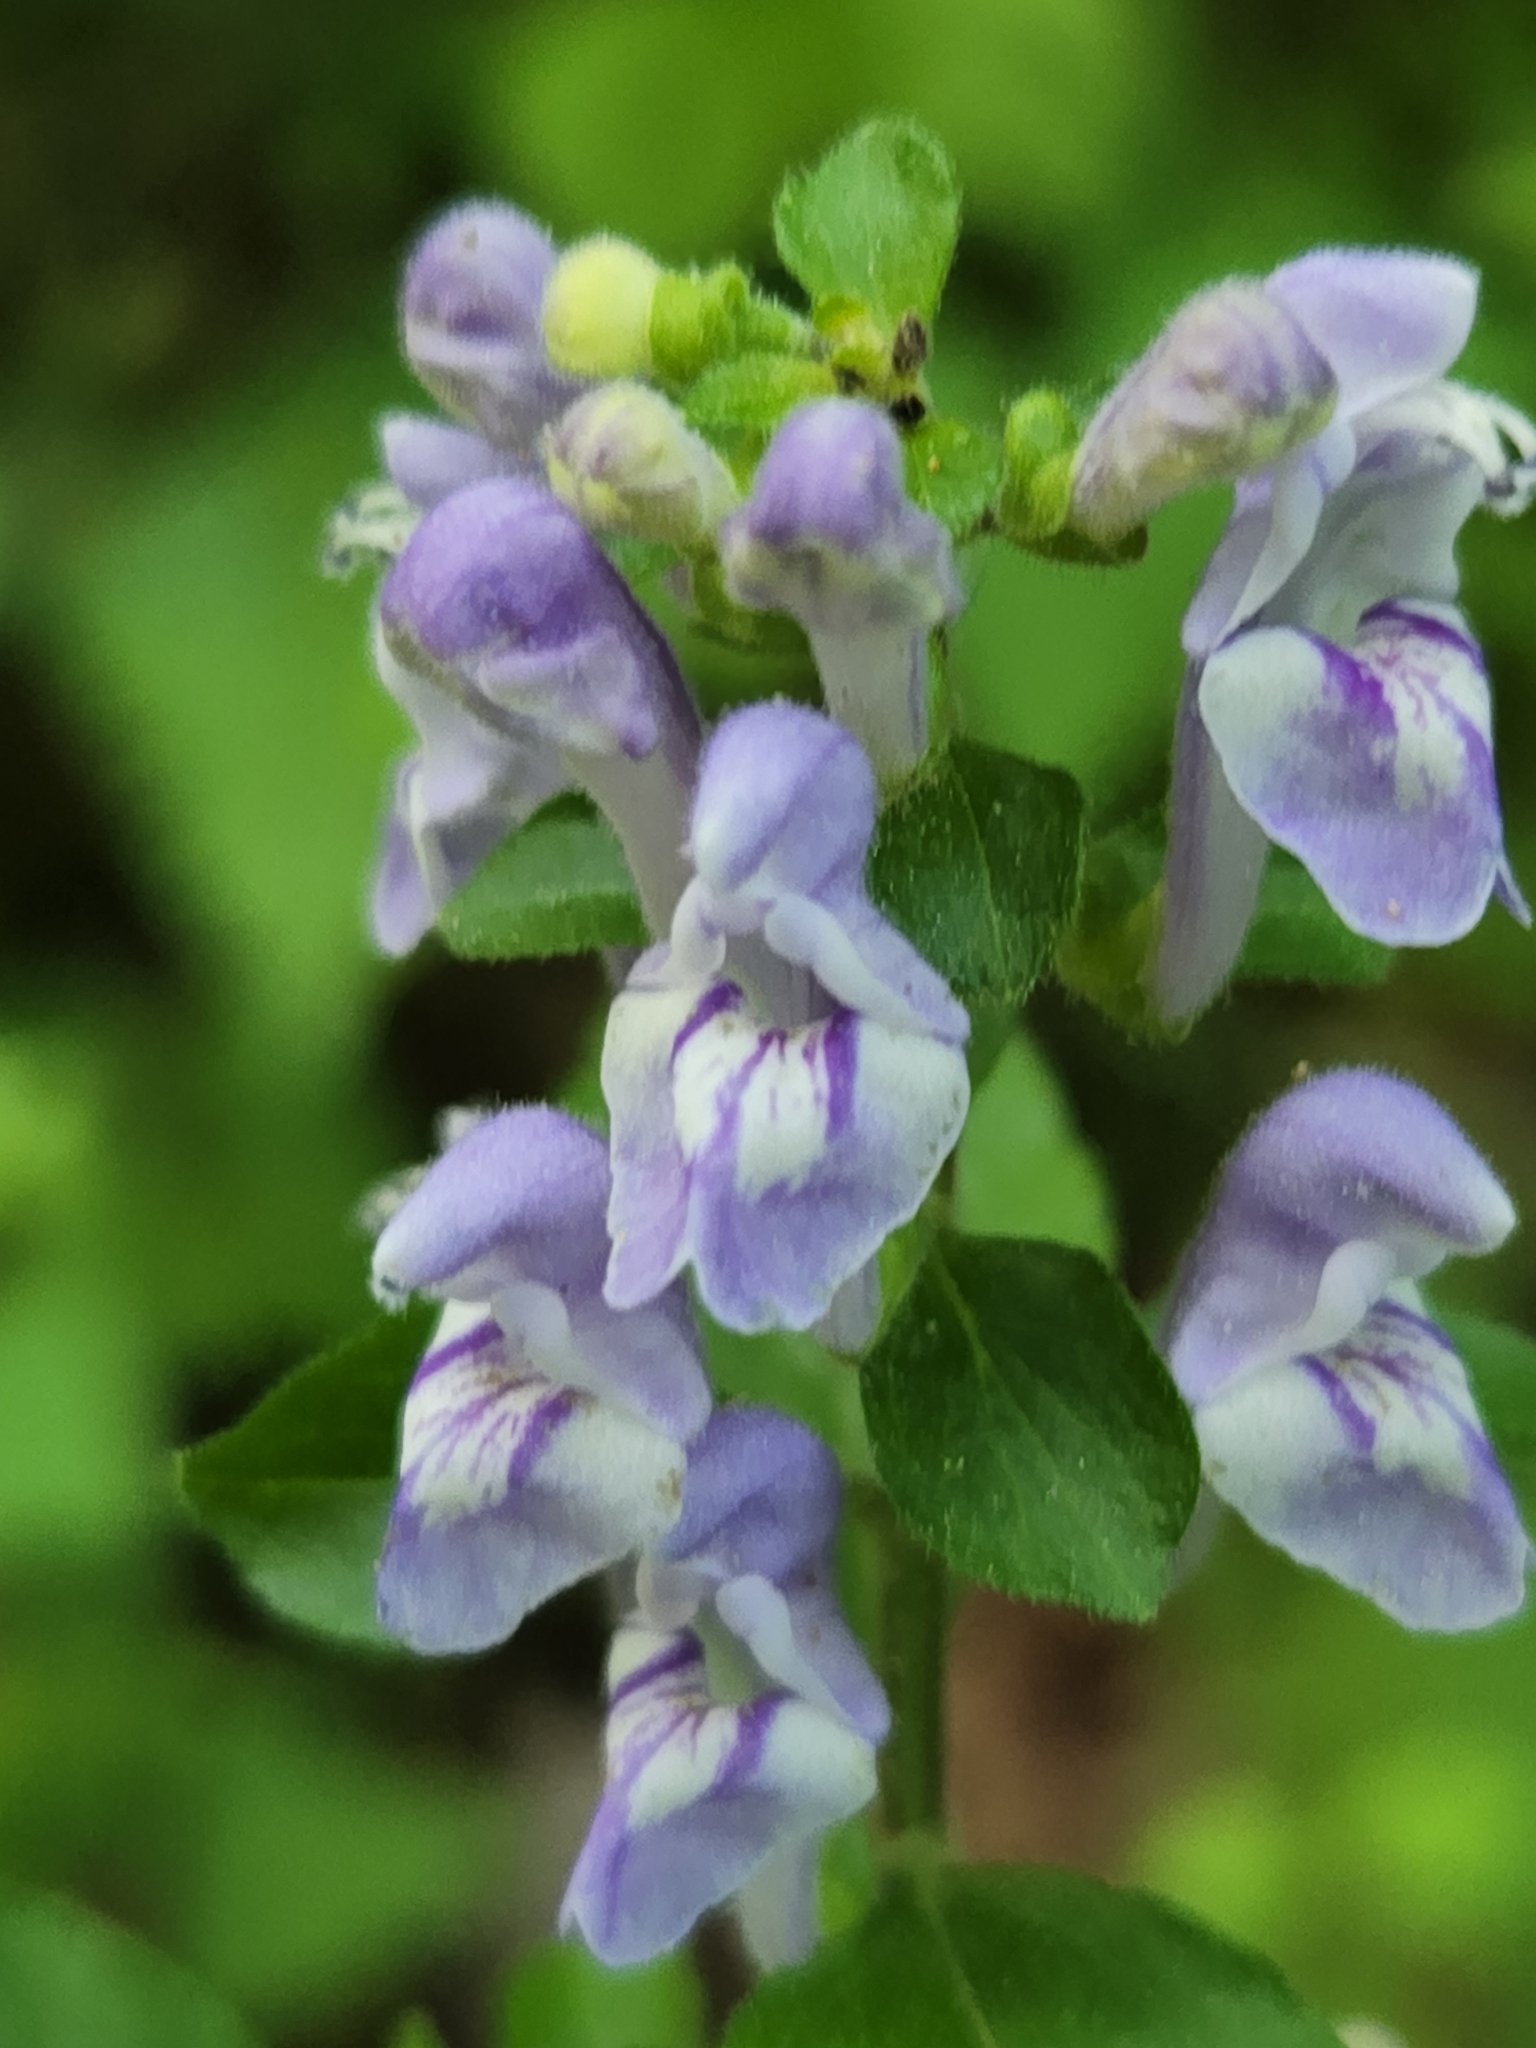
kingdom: Plantae
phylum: Tracheophyta
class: Magnoliopsida
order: Lamiales
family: Lamiaceae
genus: Scutellaria
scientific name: Scutellaria elliptica
